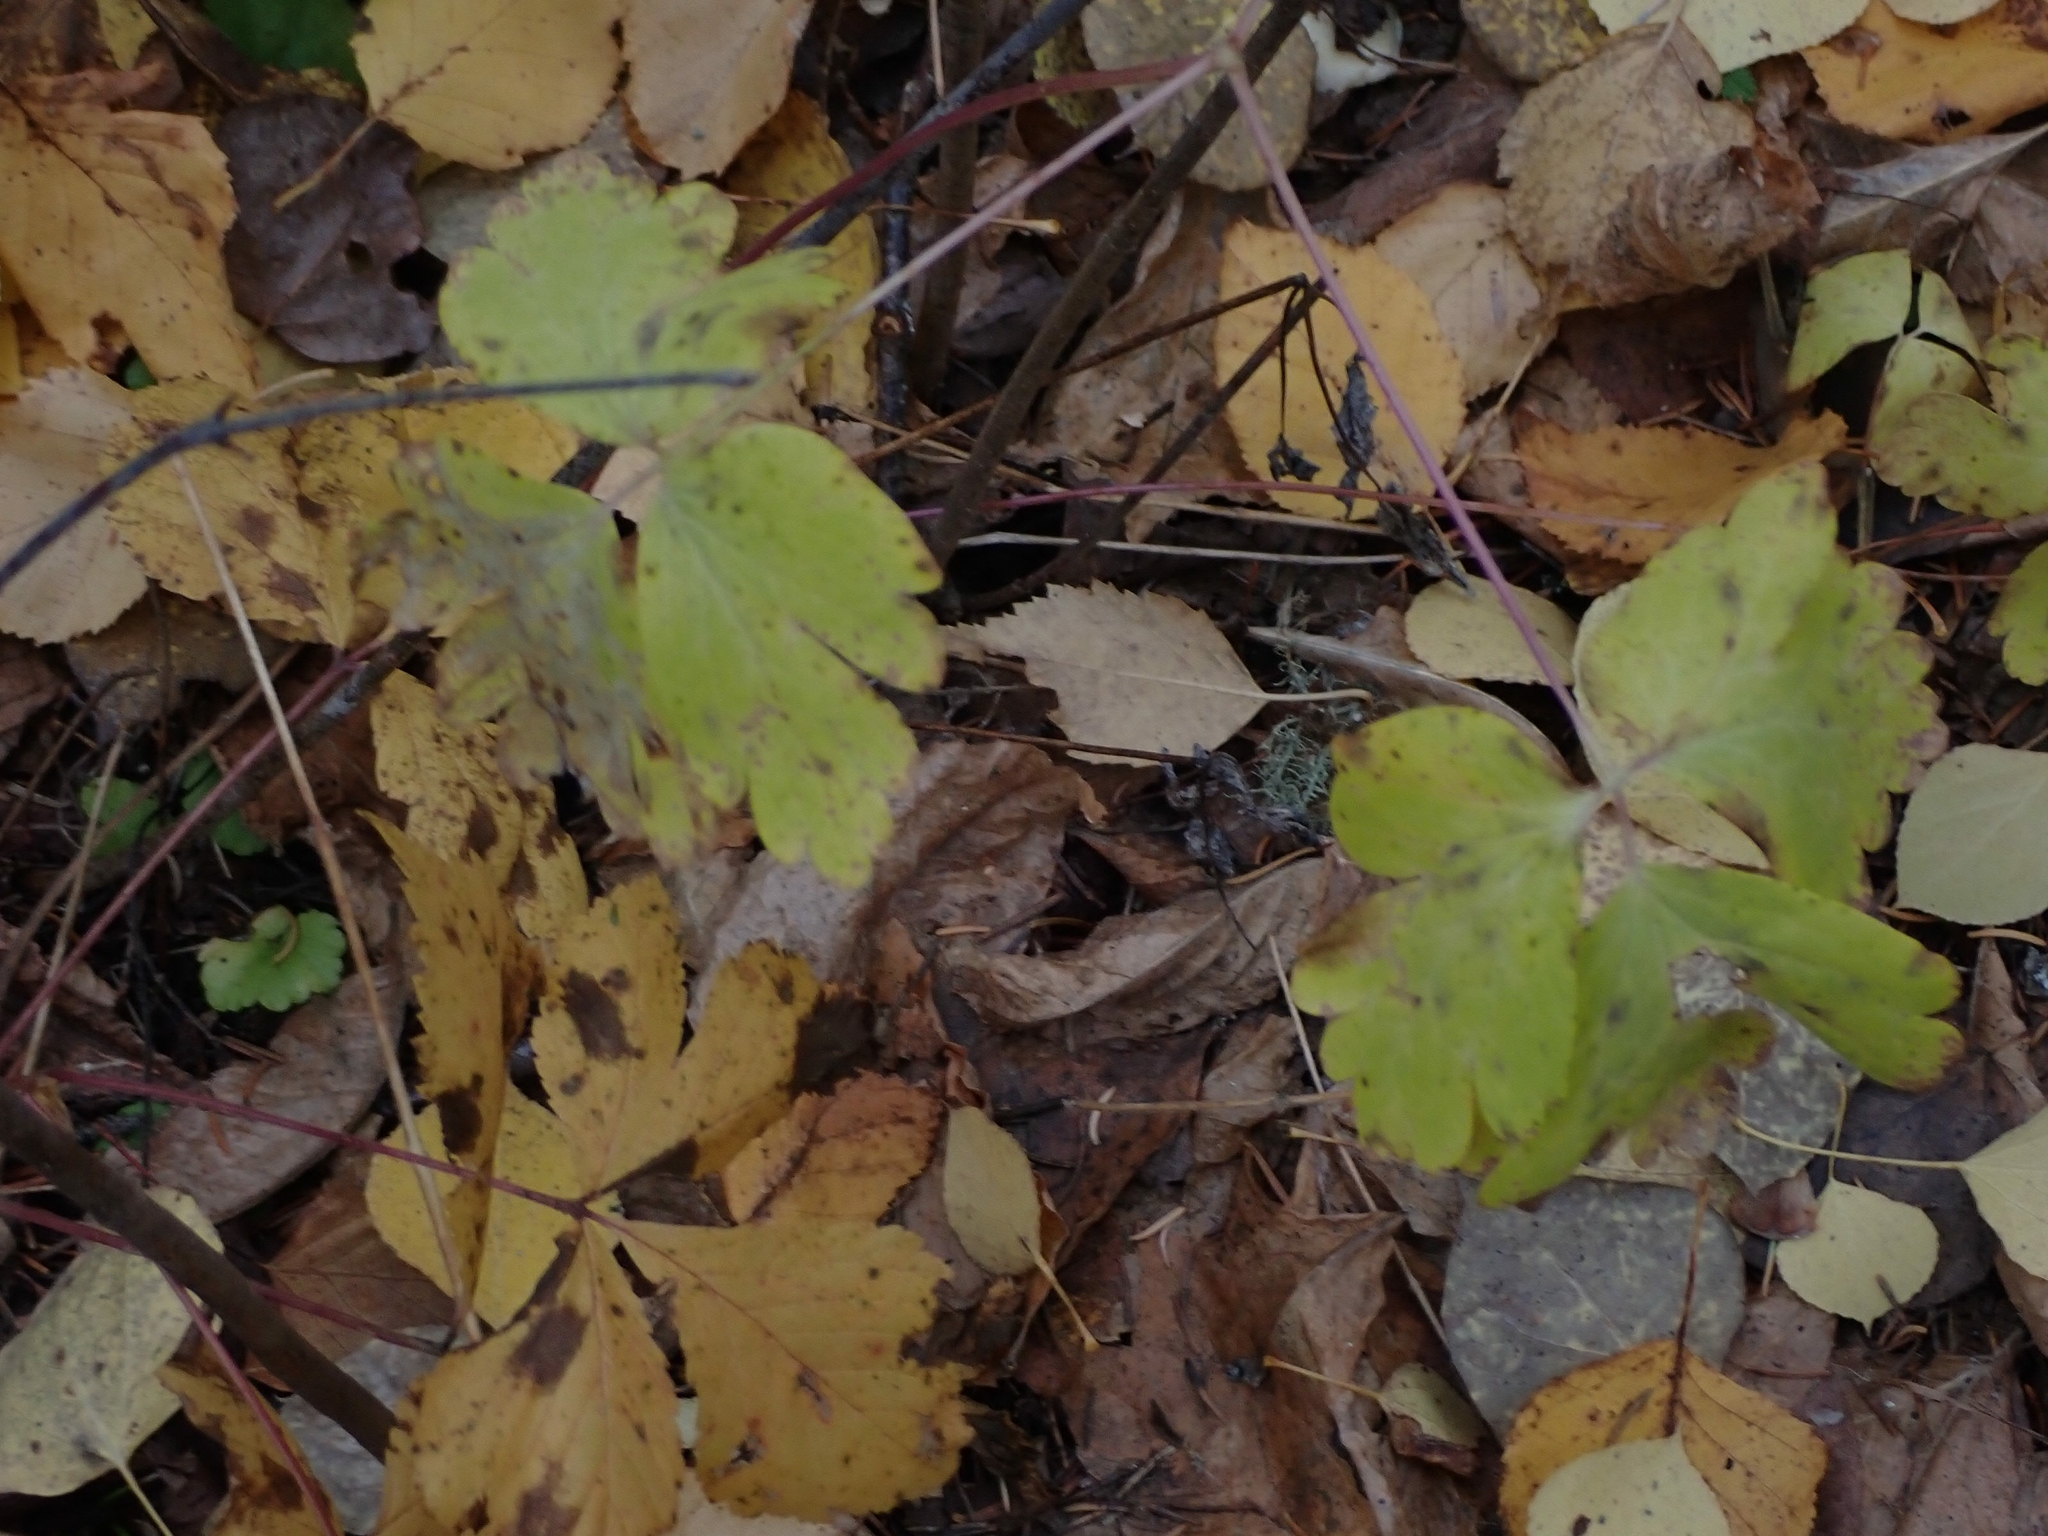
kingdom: Plantae
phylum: Tracheophyta
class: Magnoliopsida
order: Ranunculales
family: Ranunculaceae
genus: Aquilegia
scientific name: Aquilegia canadensis
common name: American columbine
